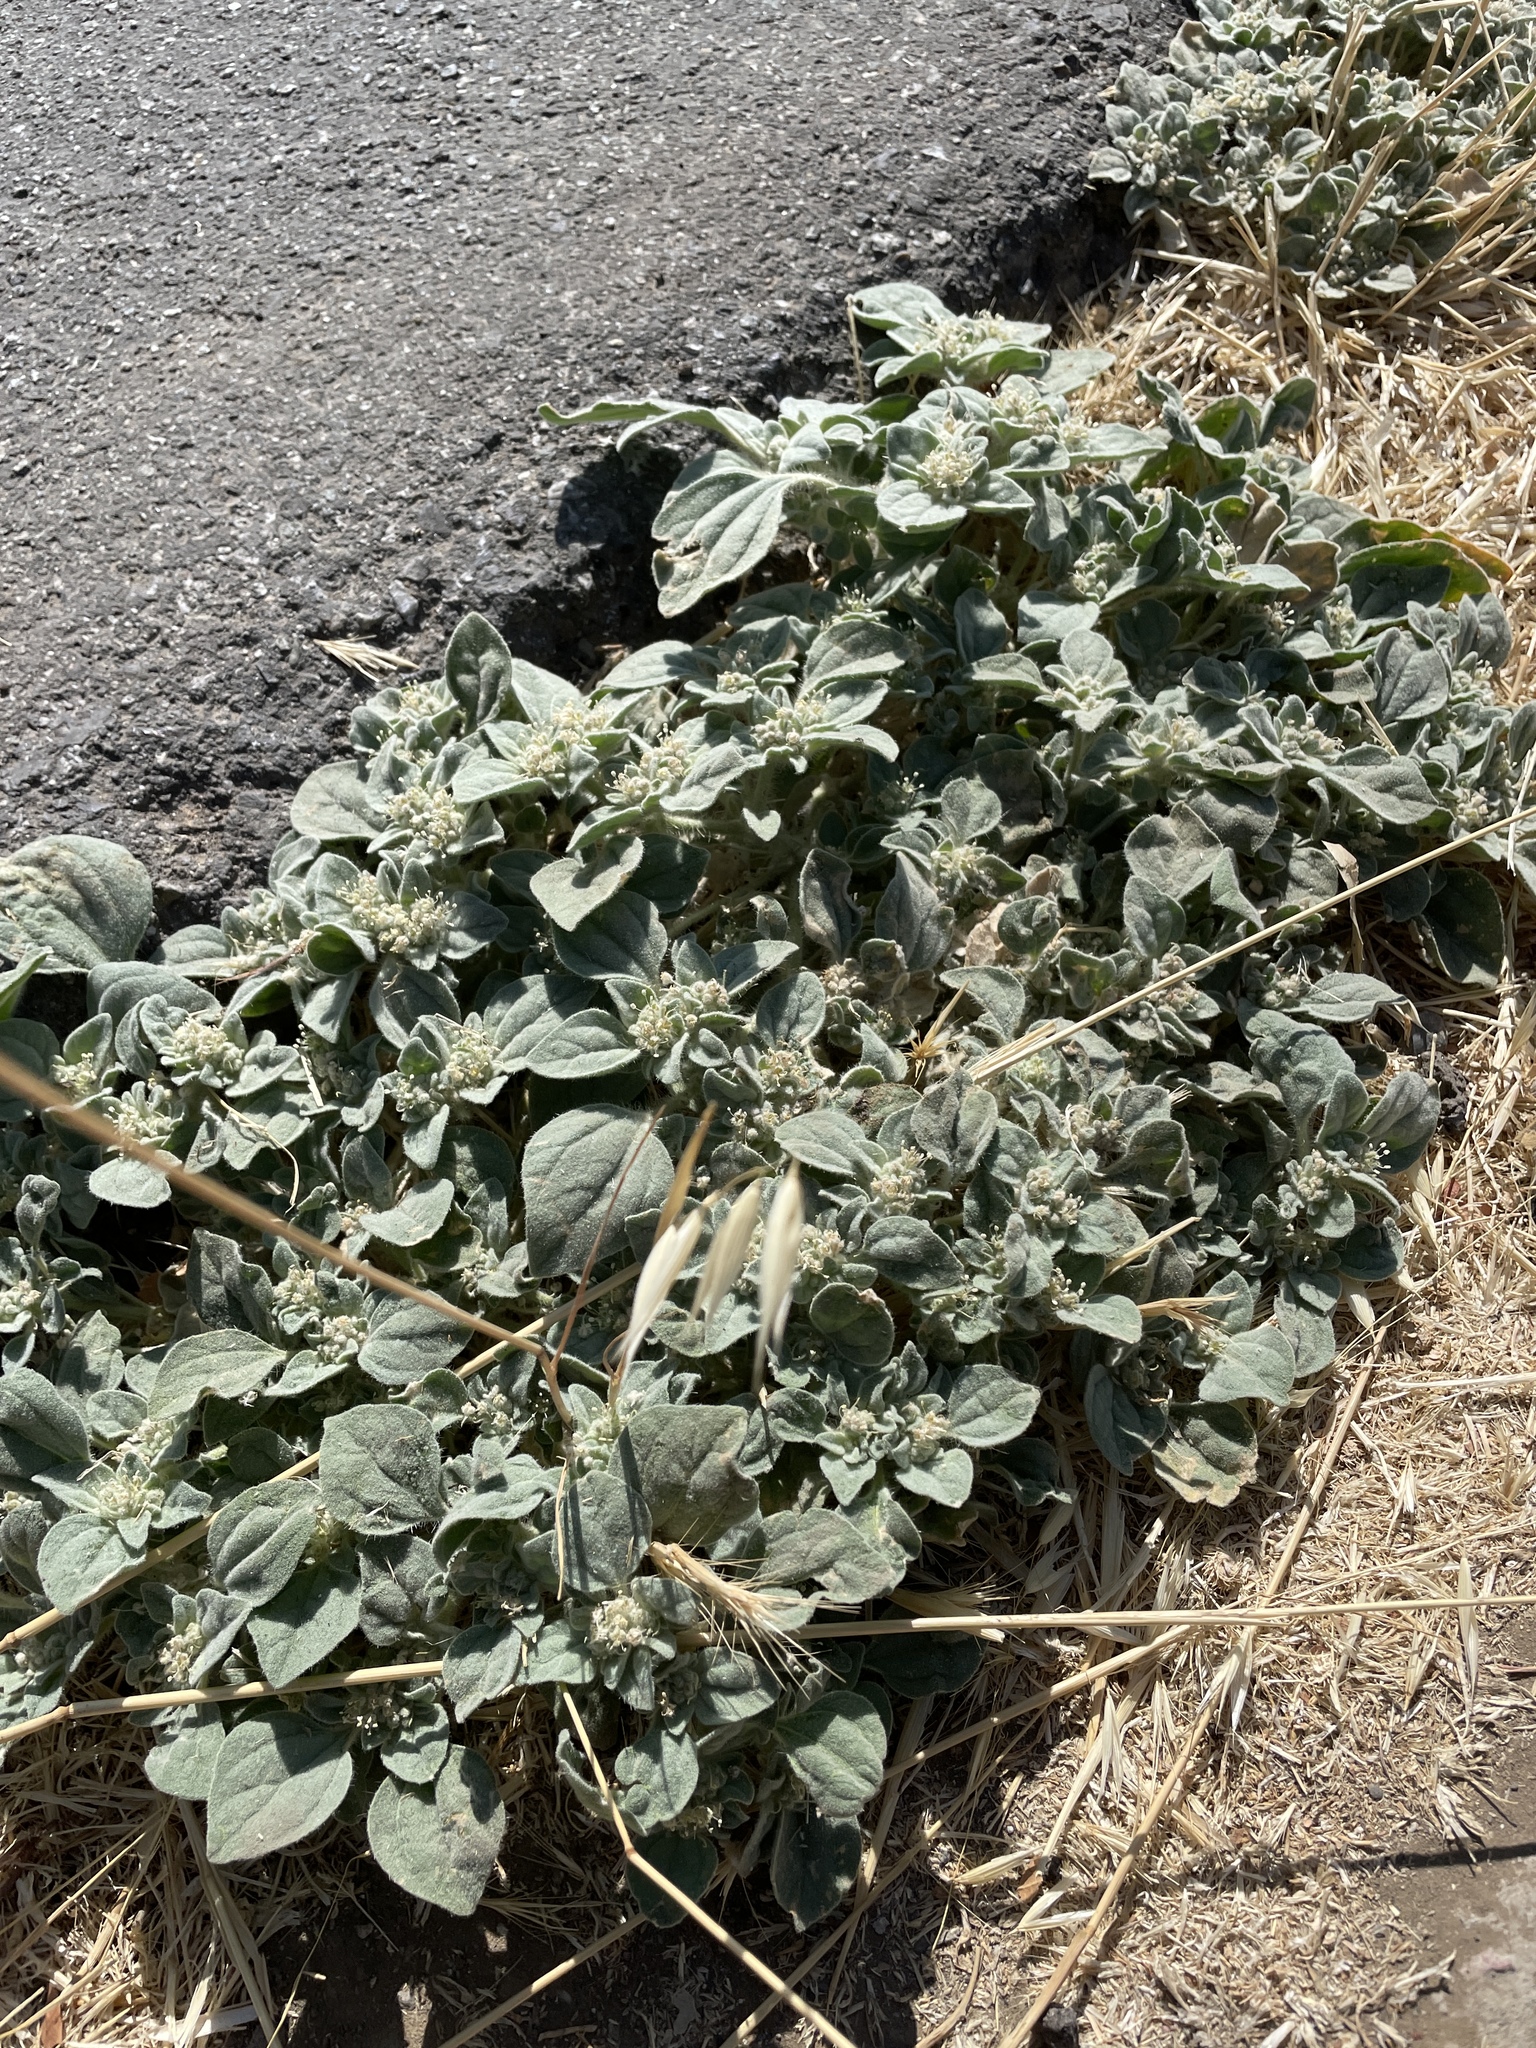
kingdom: Plantae
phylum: Tracheophyta
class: Magnoliopsida
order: Malpighiales
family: Euphorbiaceae
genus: Croton
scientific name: Croton setiger
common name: Dove weed
